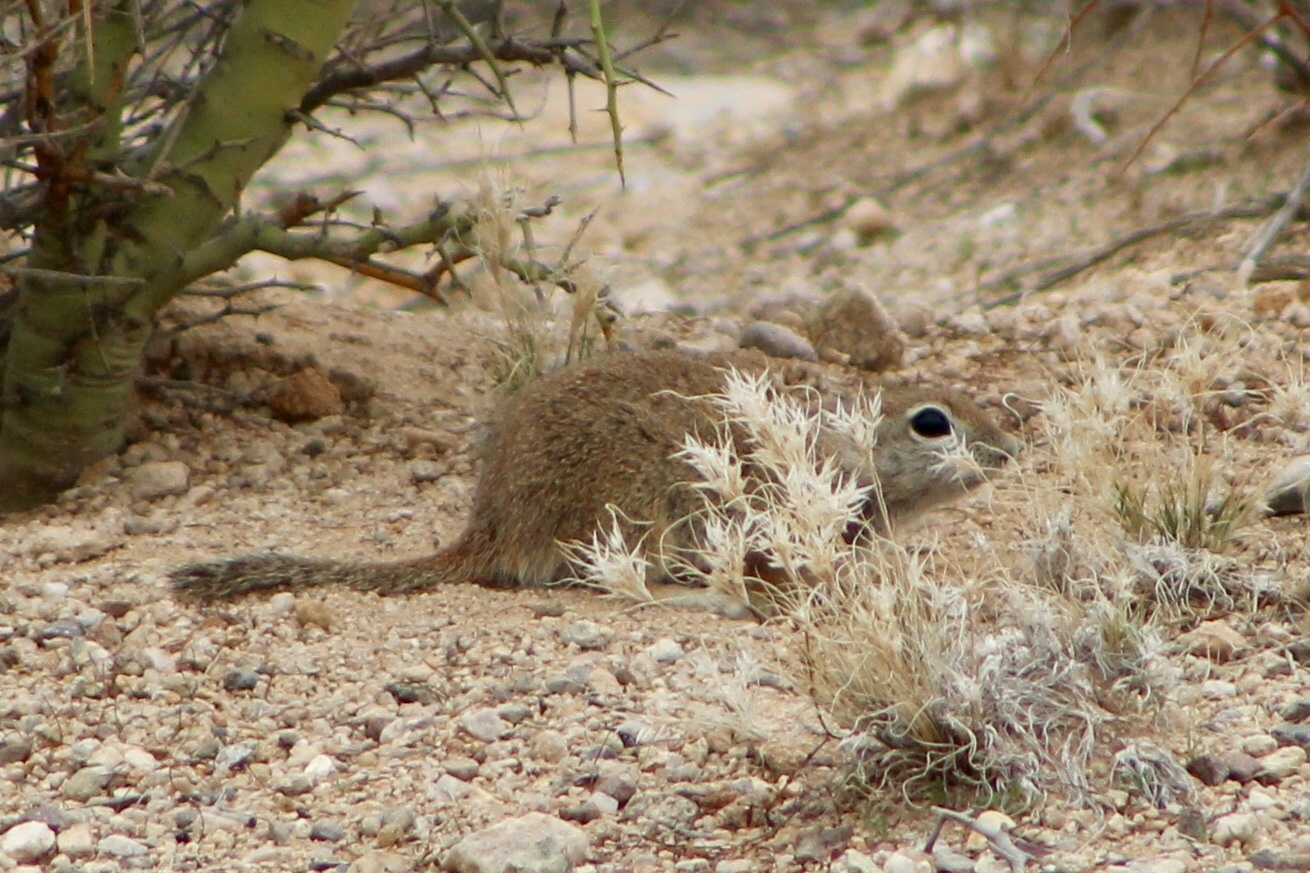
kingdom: Animalia
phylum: Chordata
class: Mammalia
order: Rodentia
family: Sciuridae
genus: Xerospermophilus
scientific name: Xerospermophilus tereticaudus
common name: Round-tailed ground squirrel
